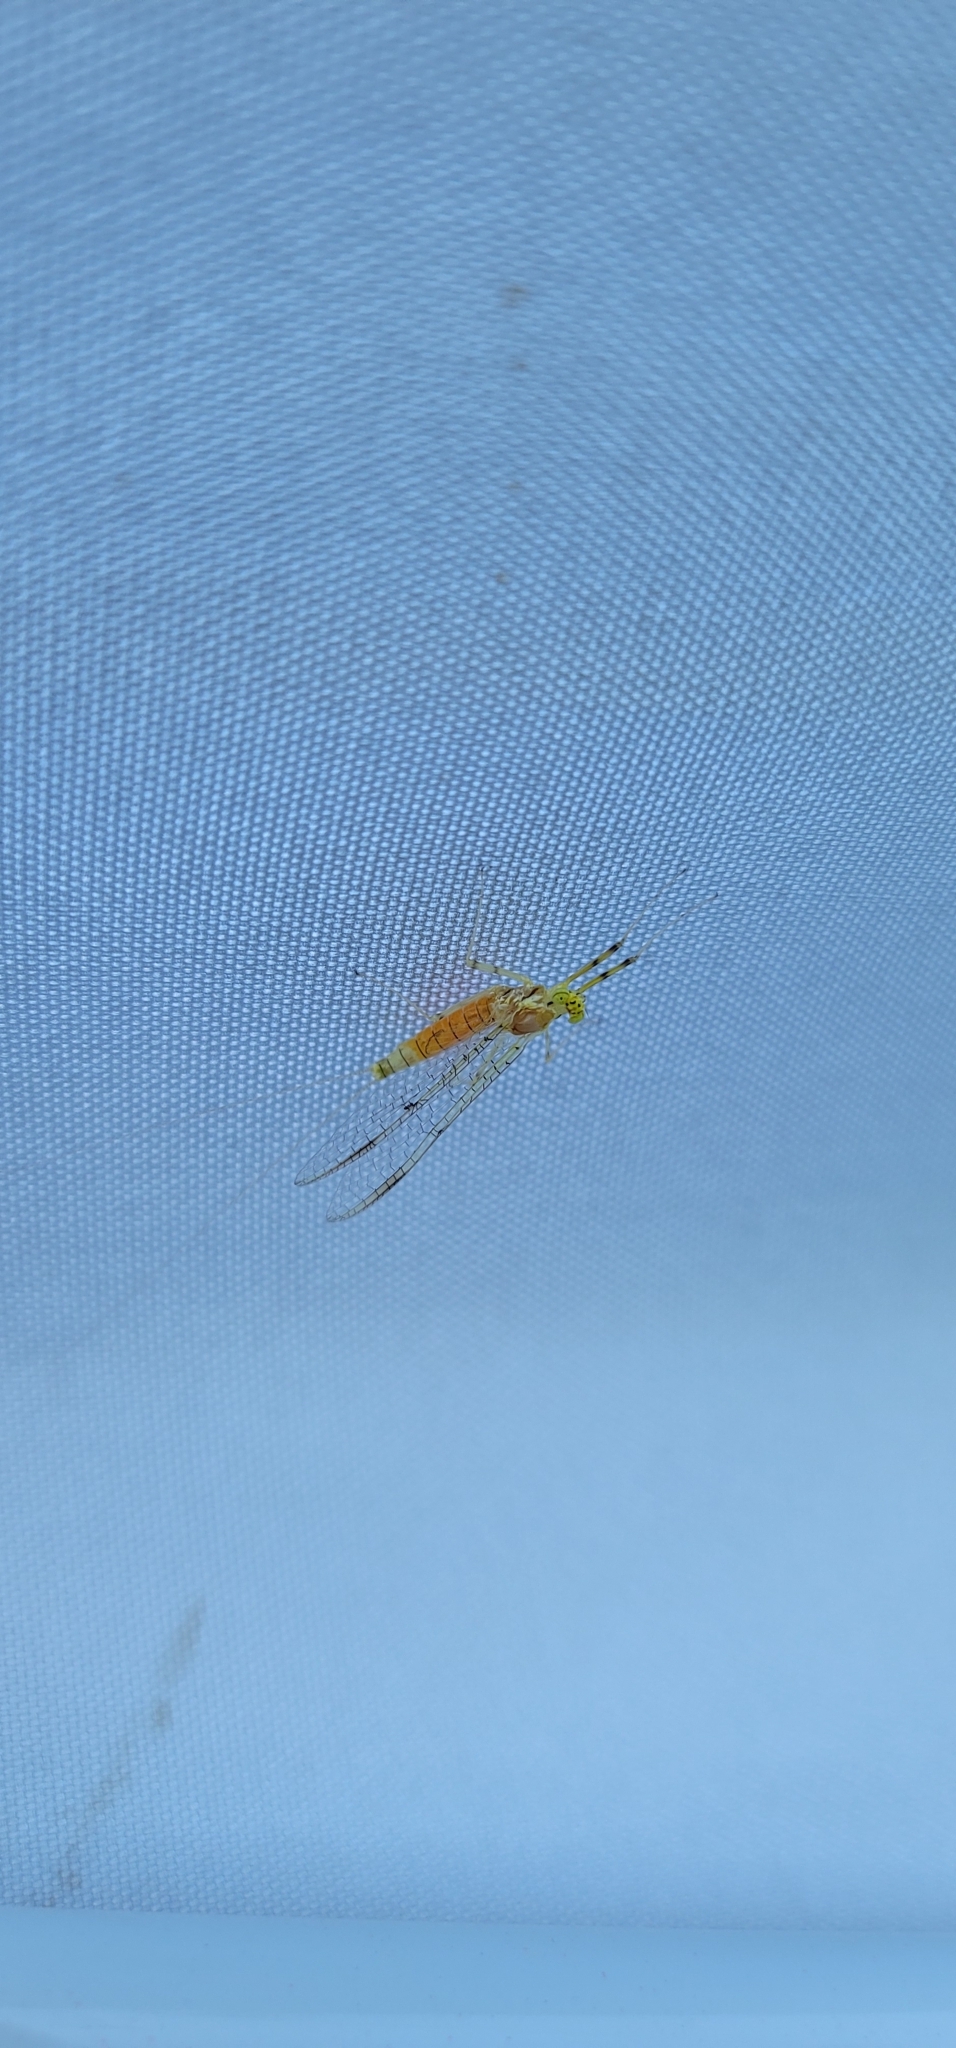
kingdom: Animalia
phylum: Arthropoda
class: Insecta
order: Ephemeroptera
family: Heptageniidae
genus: Stenacron
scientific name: Stenacron interpunctatum
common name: Orange cahill
